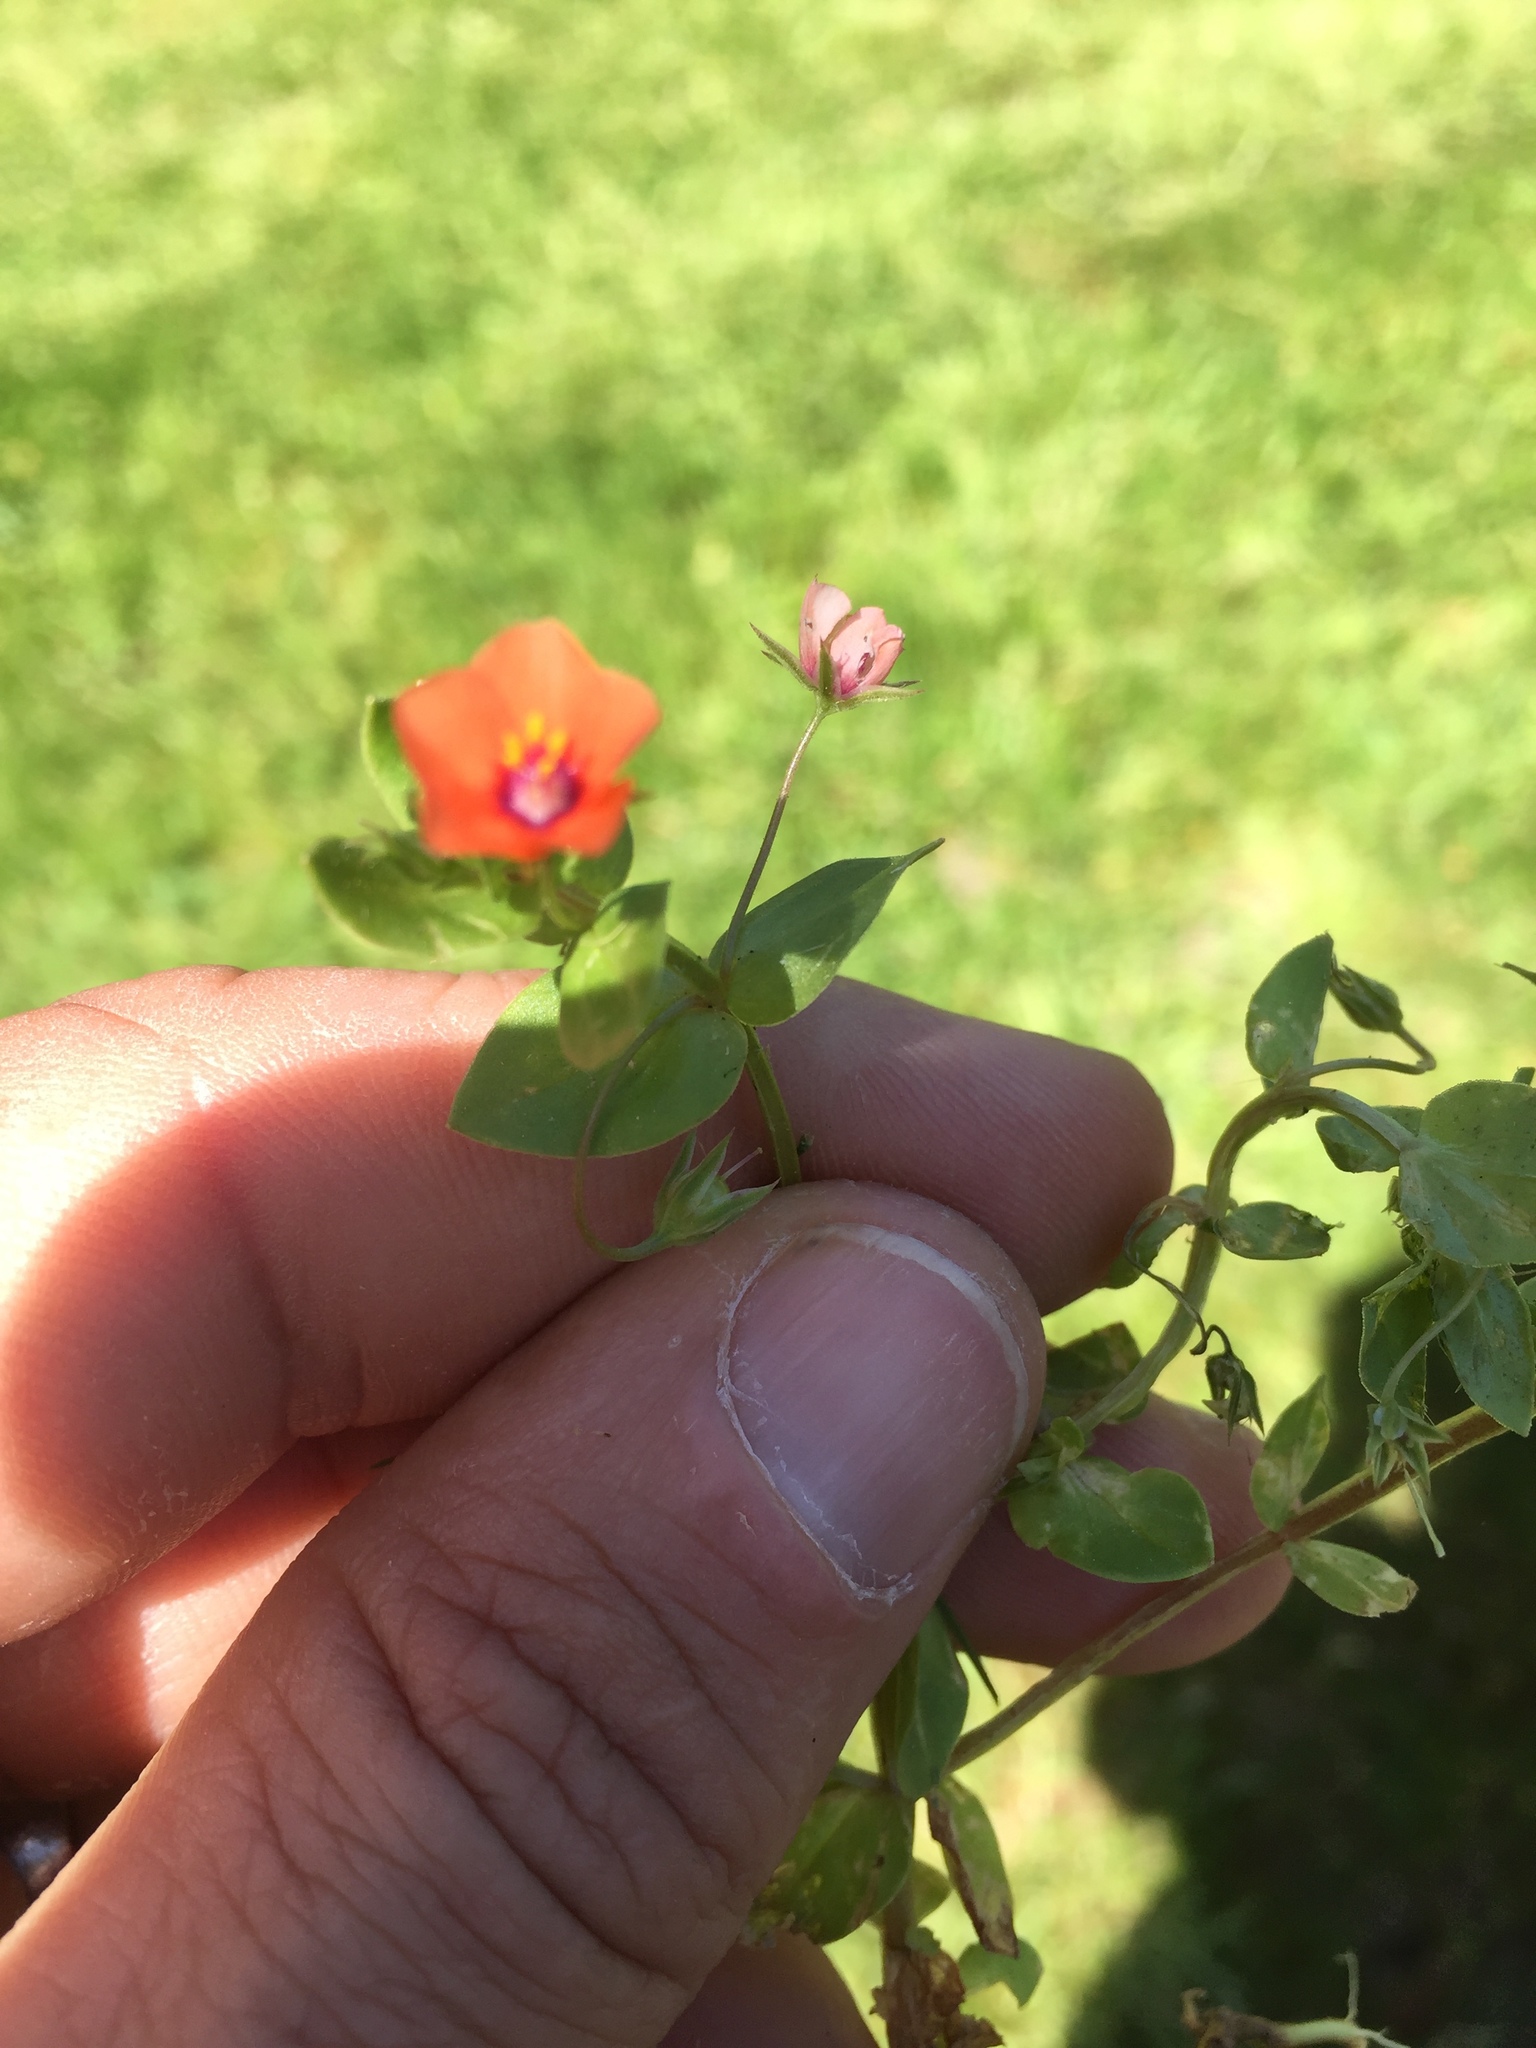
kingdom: Plantae
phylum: Tracheophyta
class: Magnoliopsida
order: Ericales
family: Primulaceae
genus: Lysimachia
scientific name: Lysimachia arvensis
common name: Scarlet pimpernel
